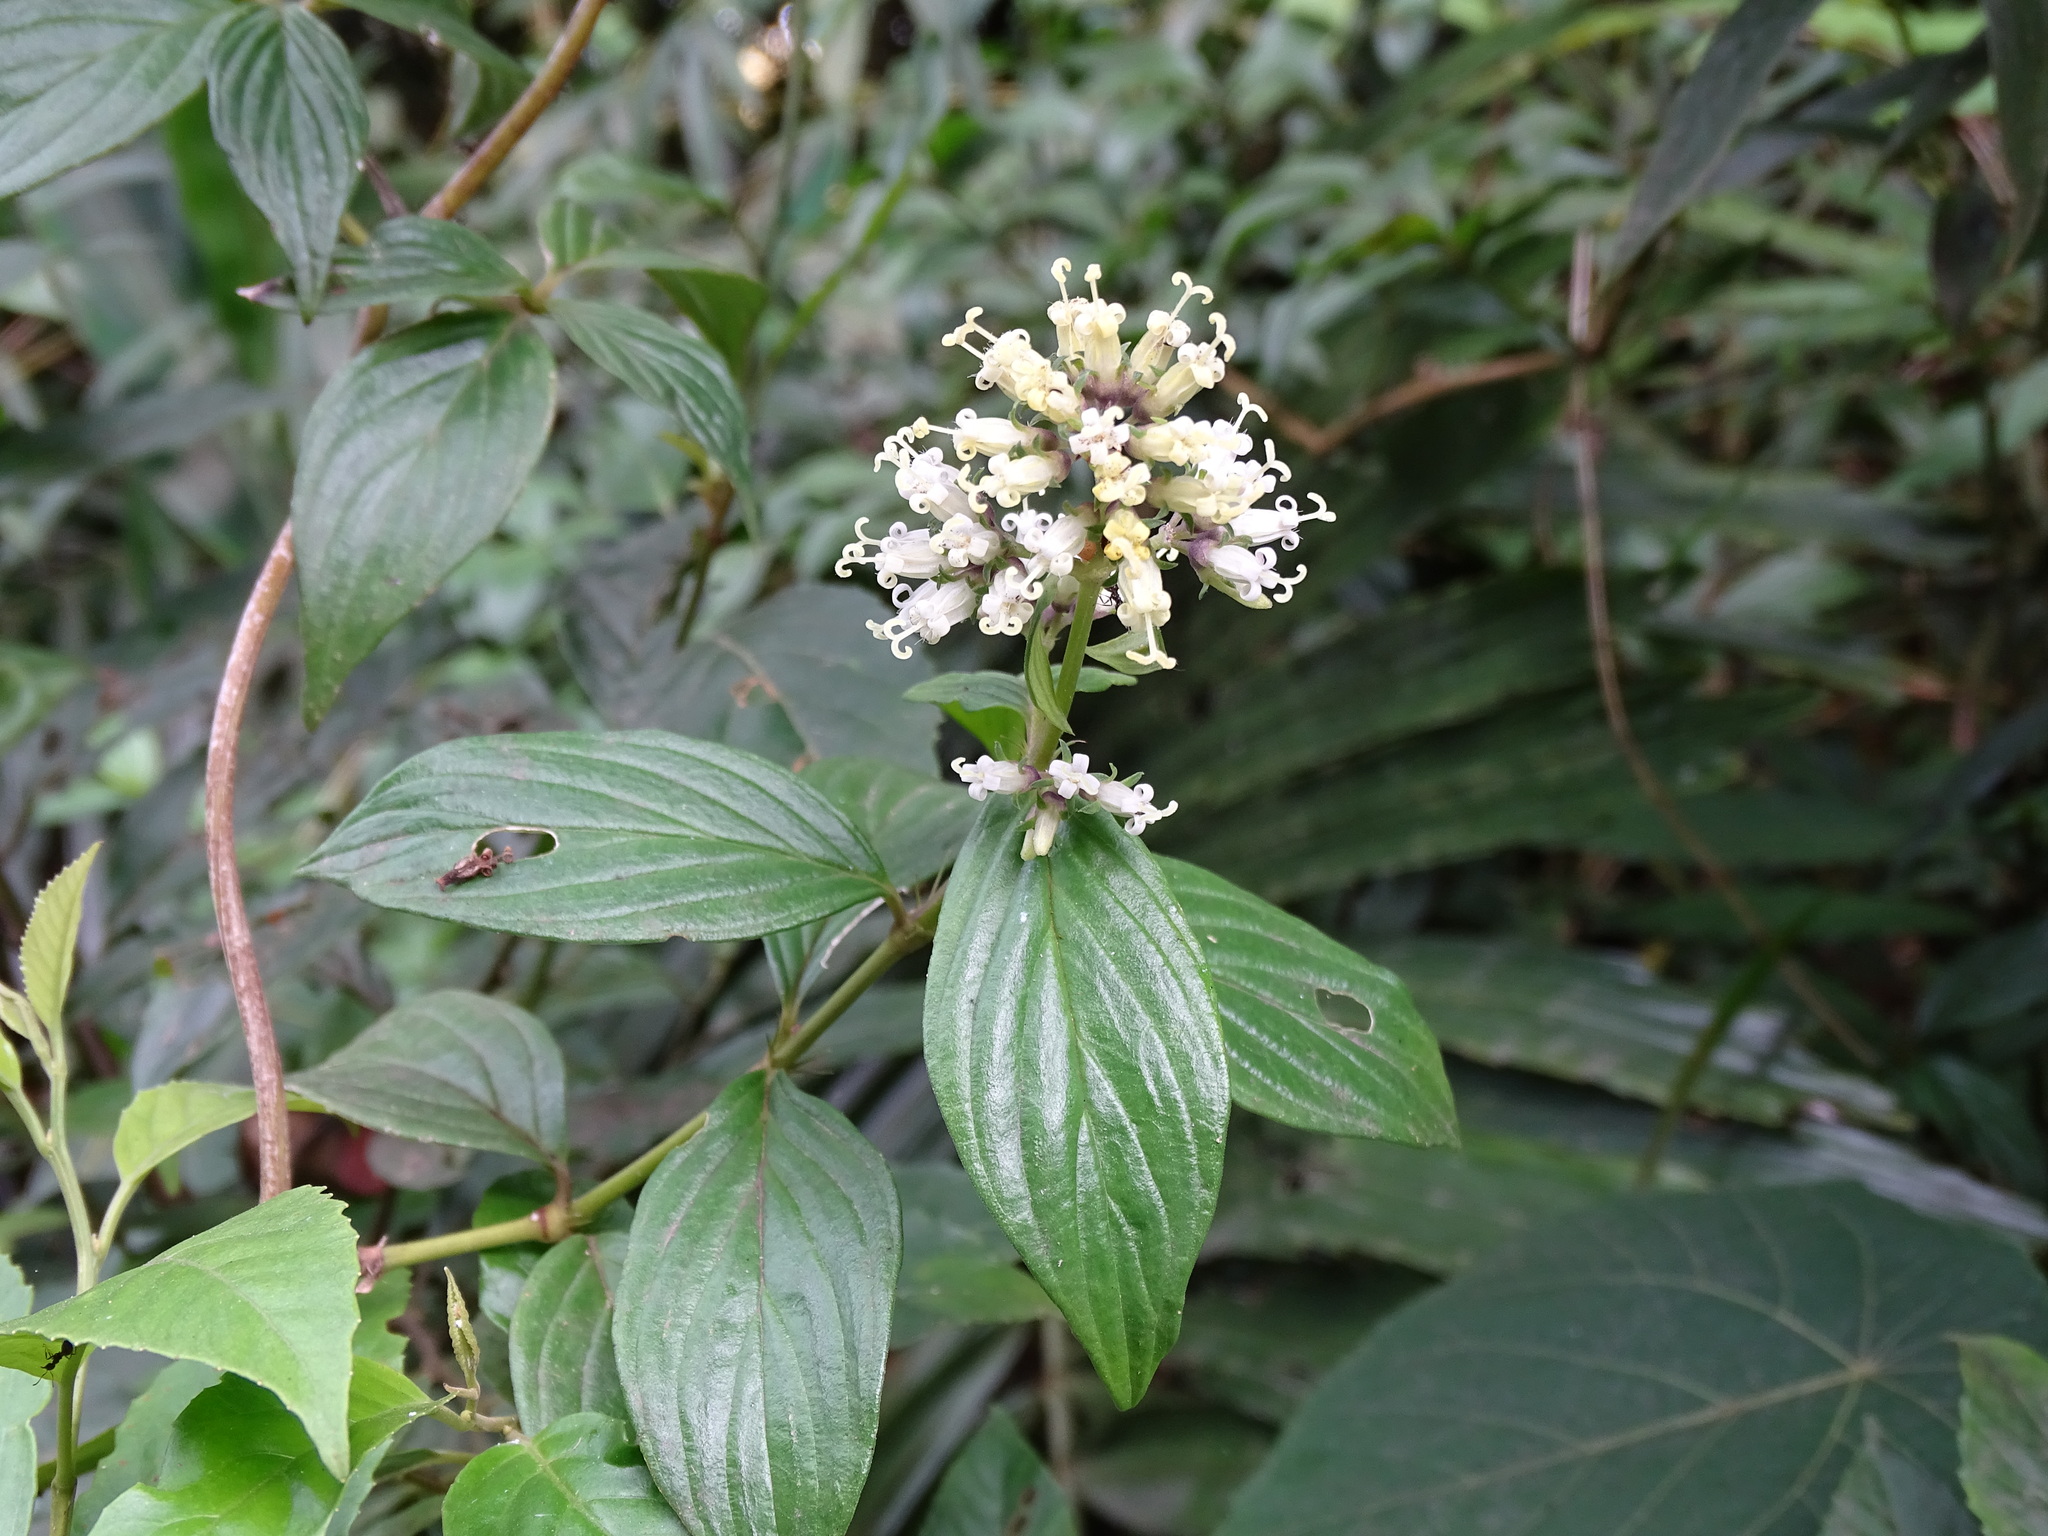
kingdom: Plantae
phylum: Tracheophyta
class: Magnoliopsida
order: Gentianales
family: Rubiaceae
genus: Dimetia
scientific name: Dimetia hedyotidea
